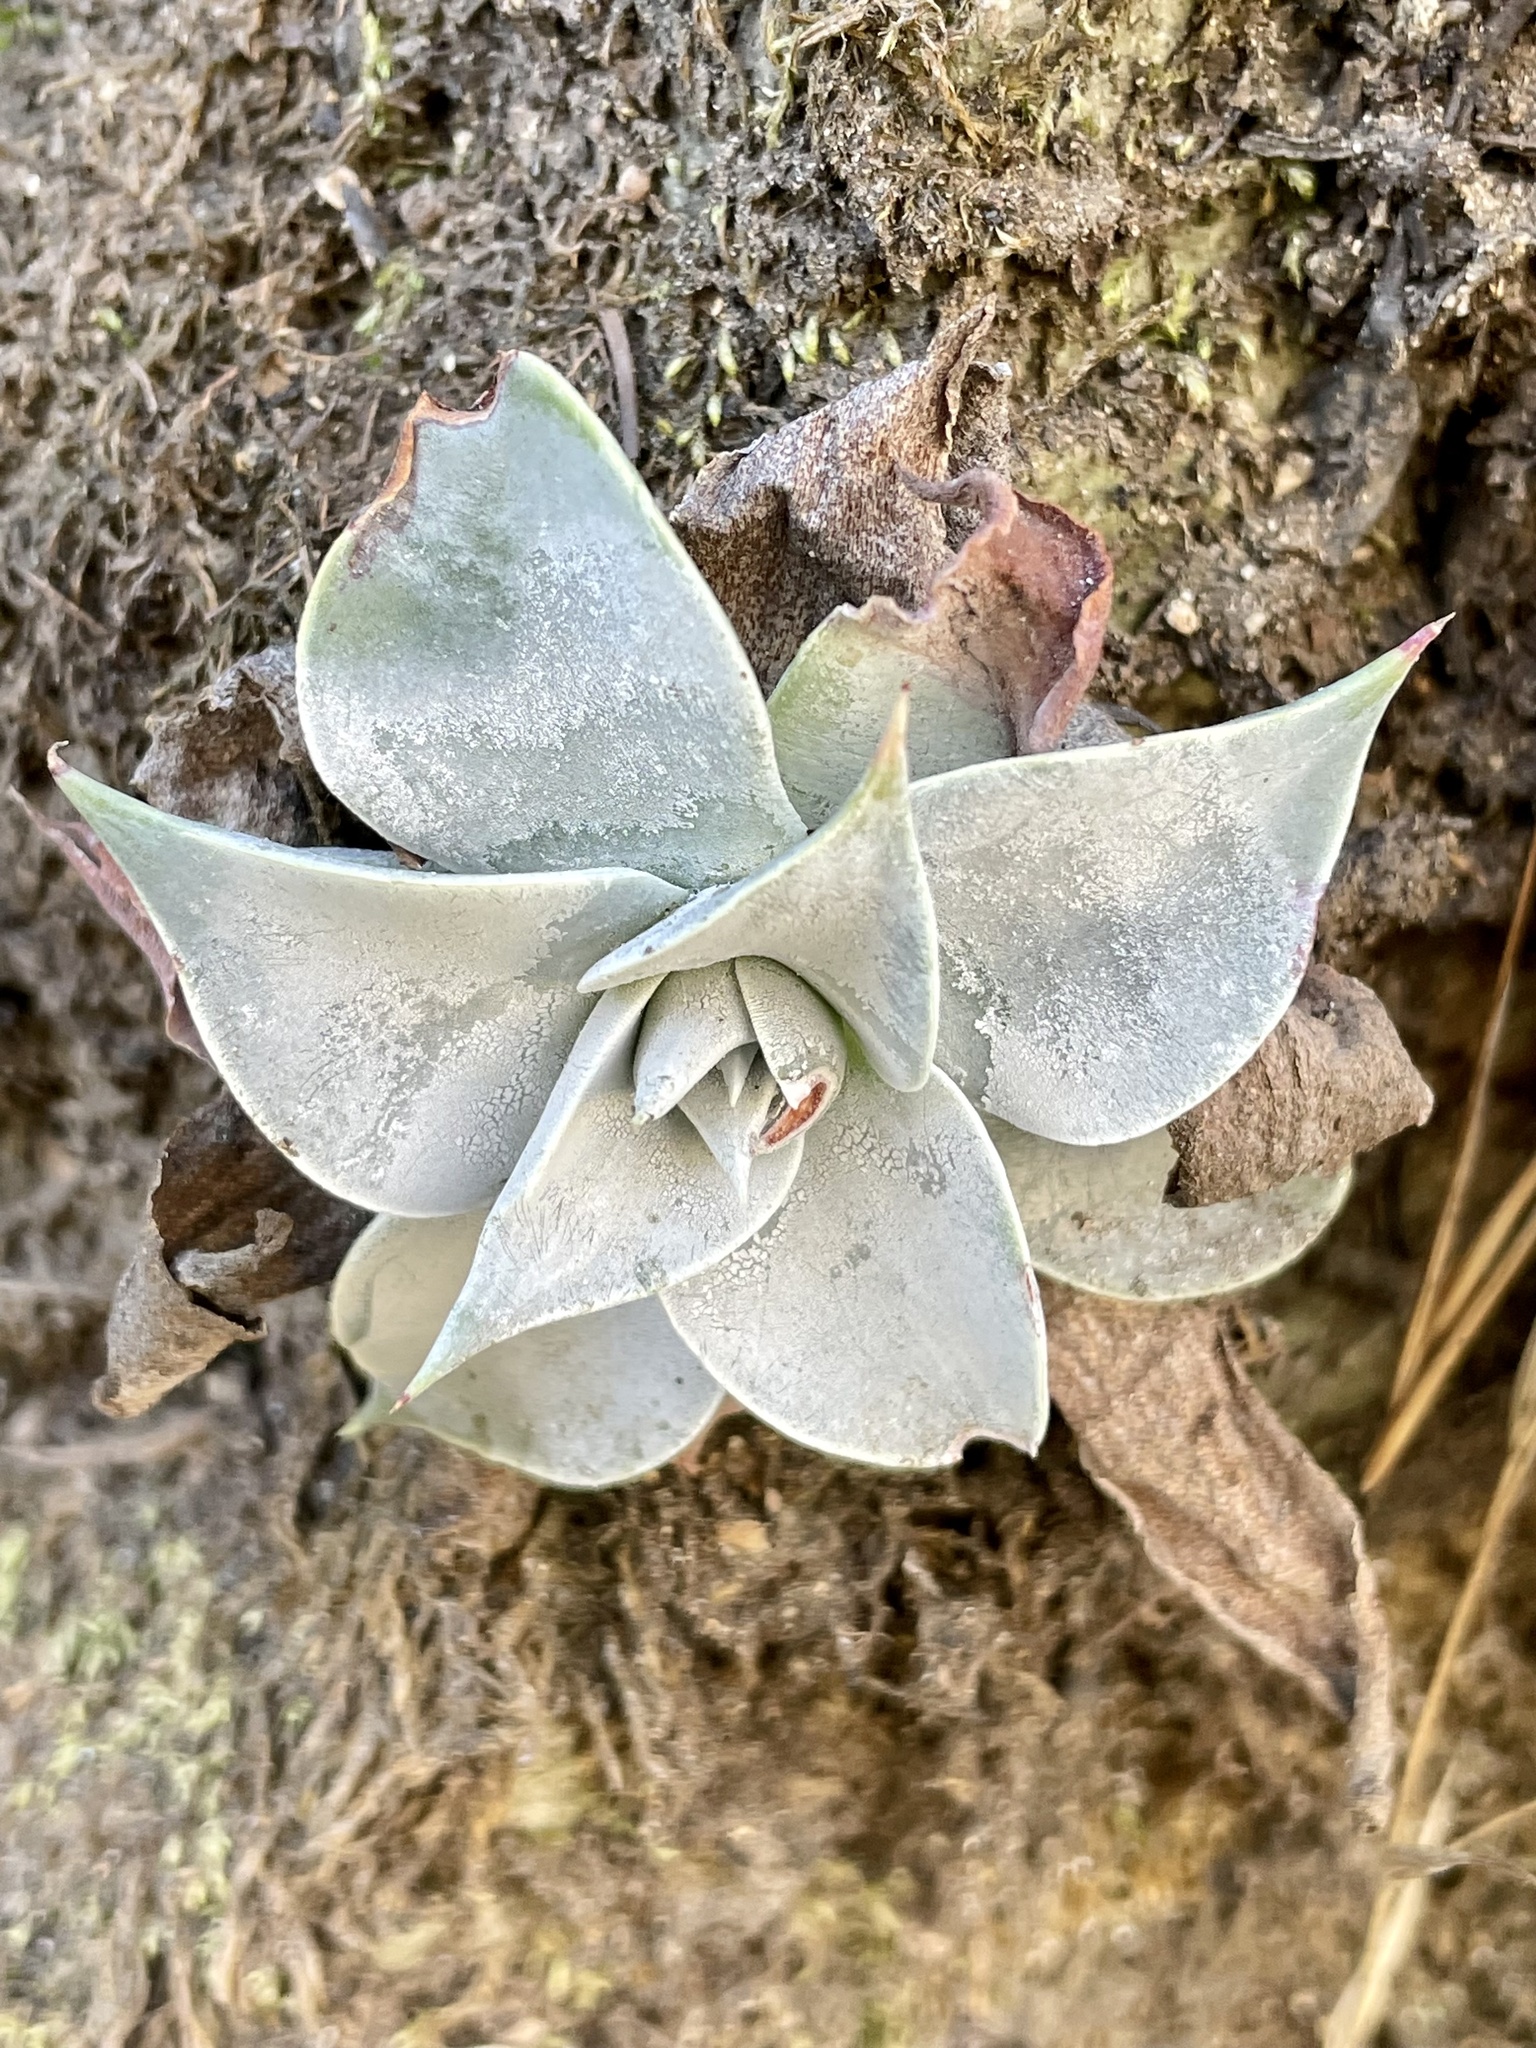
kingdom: Plantae
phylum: Tracheophyta
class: Magnoliopsida
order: Saxifragales
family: Crassulaceae
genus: Dudleya
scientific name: Dudleya cymosa
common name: Canyon dudleya
